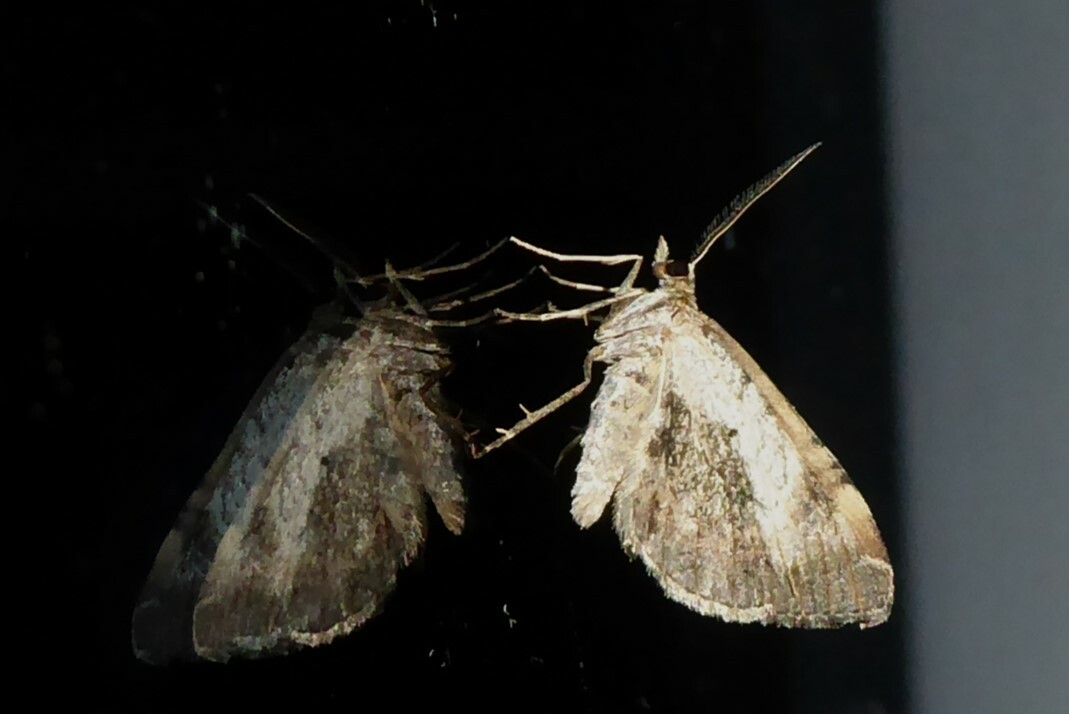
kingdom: Animalia
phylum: Arthropoda
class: Insecta
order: Lepidoptera
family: Geometridae
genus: Asaphodes
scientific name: Asaphodes aegrota
